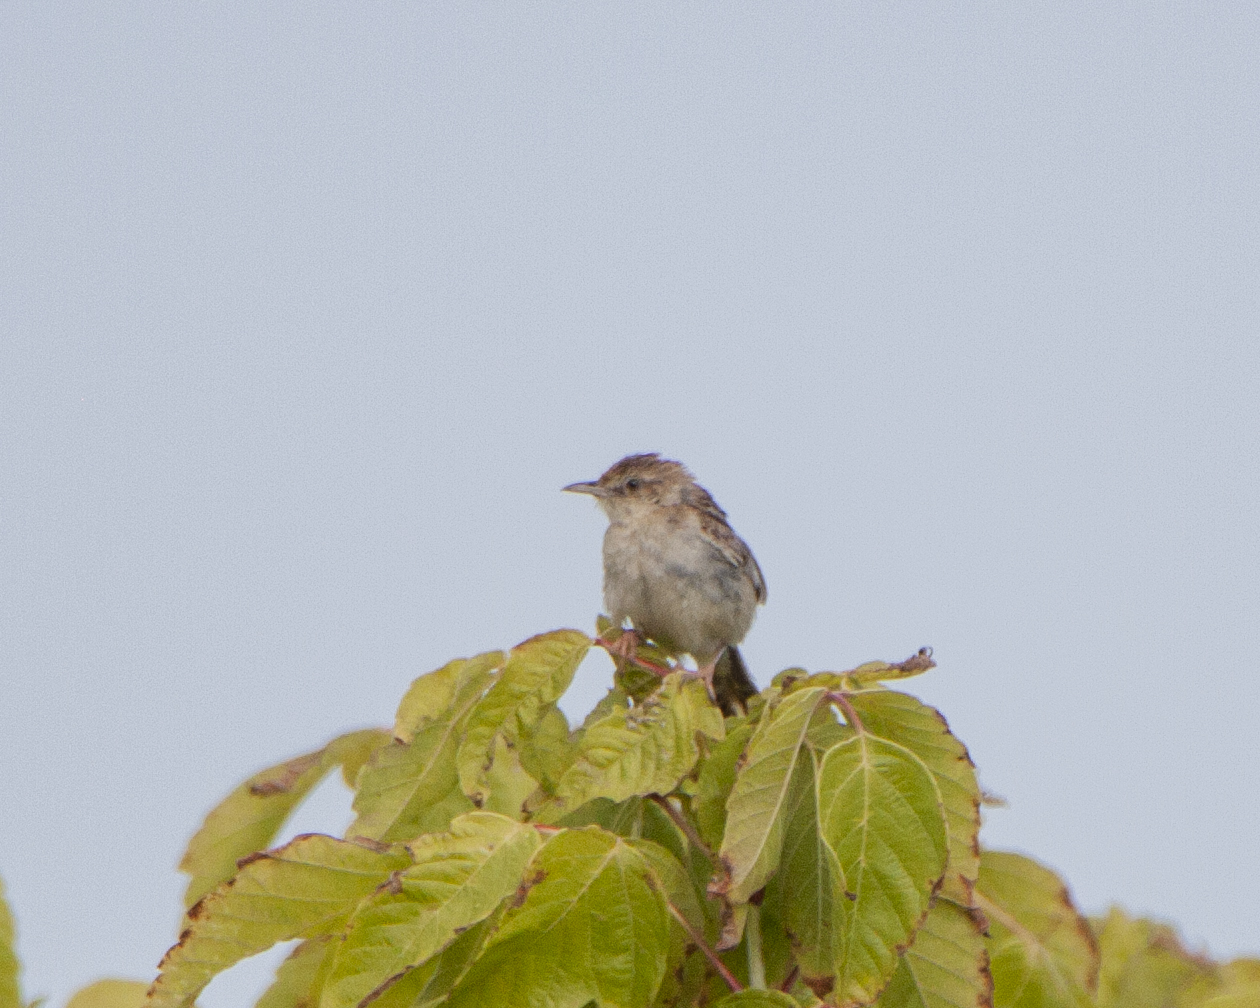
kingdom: Animalia
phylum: Chordata
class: Aves
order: Passeriformes
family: Cisticolidae
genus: Cisticola
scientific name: Cisticola juncidis
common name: Zitting cisticola
